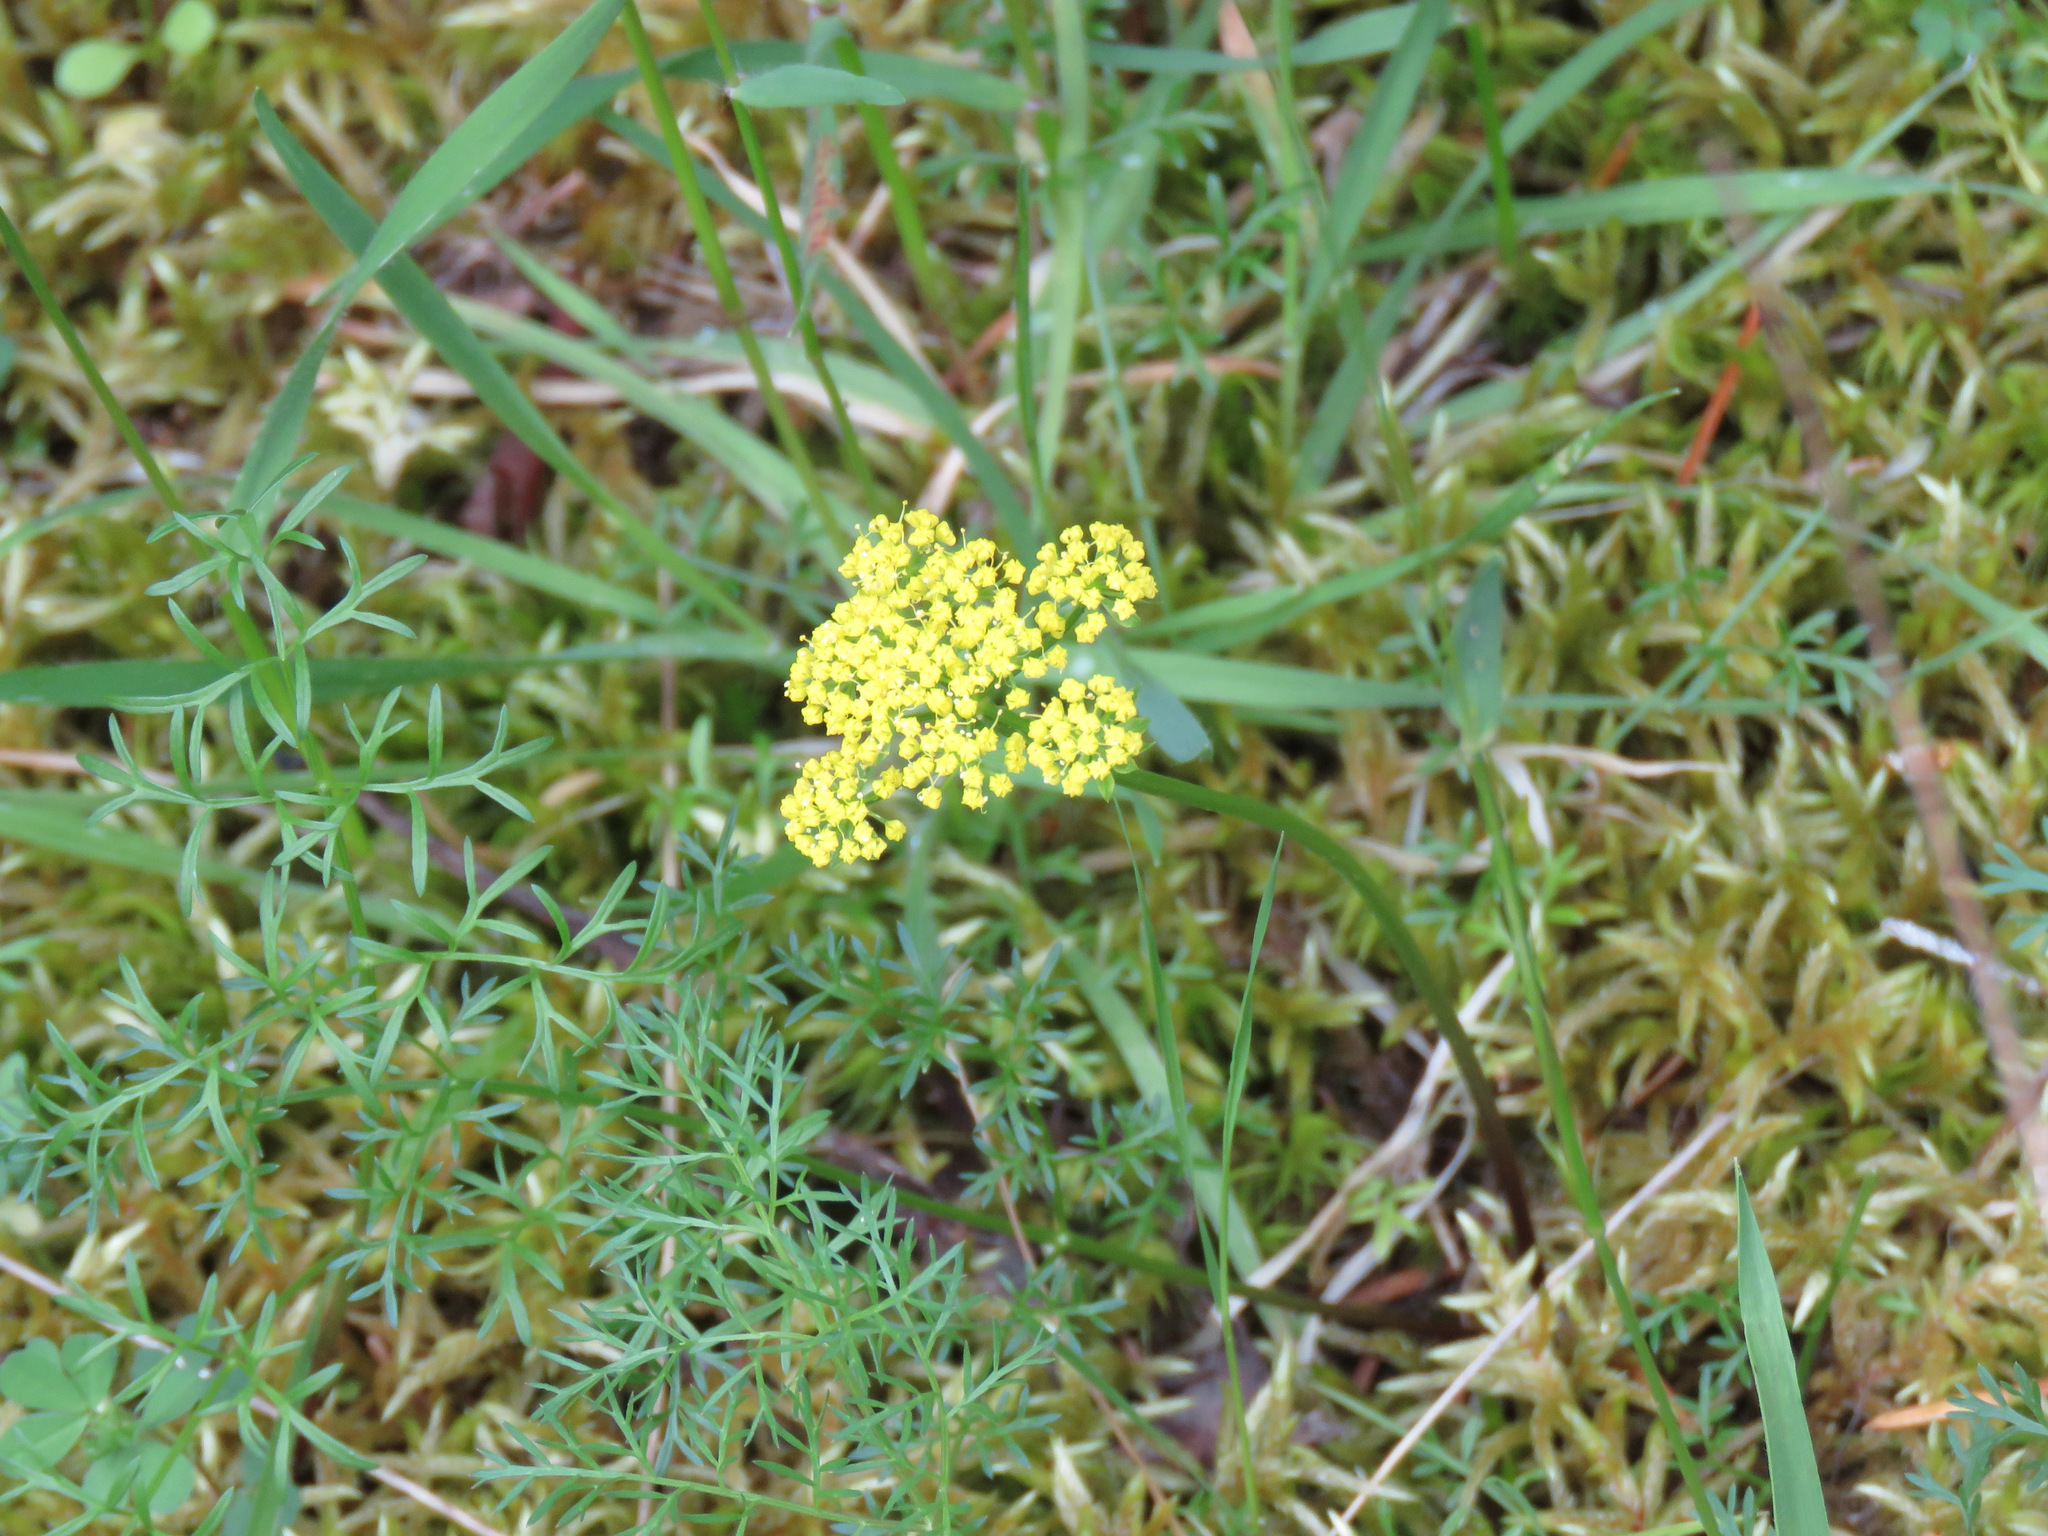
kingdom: Plantae
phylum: Tracheophyta
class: Magnoliopsida
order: Apiales
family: Apiaceae
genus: Lomatium
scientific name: Lomatium utriculatum
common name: Fine-leaf desert-parsley
